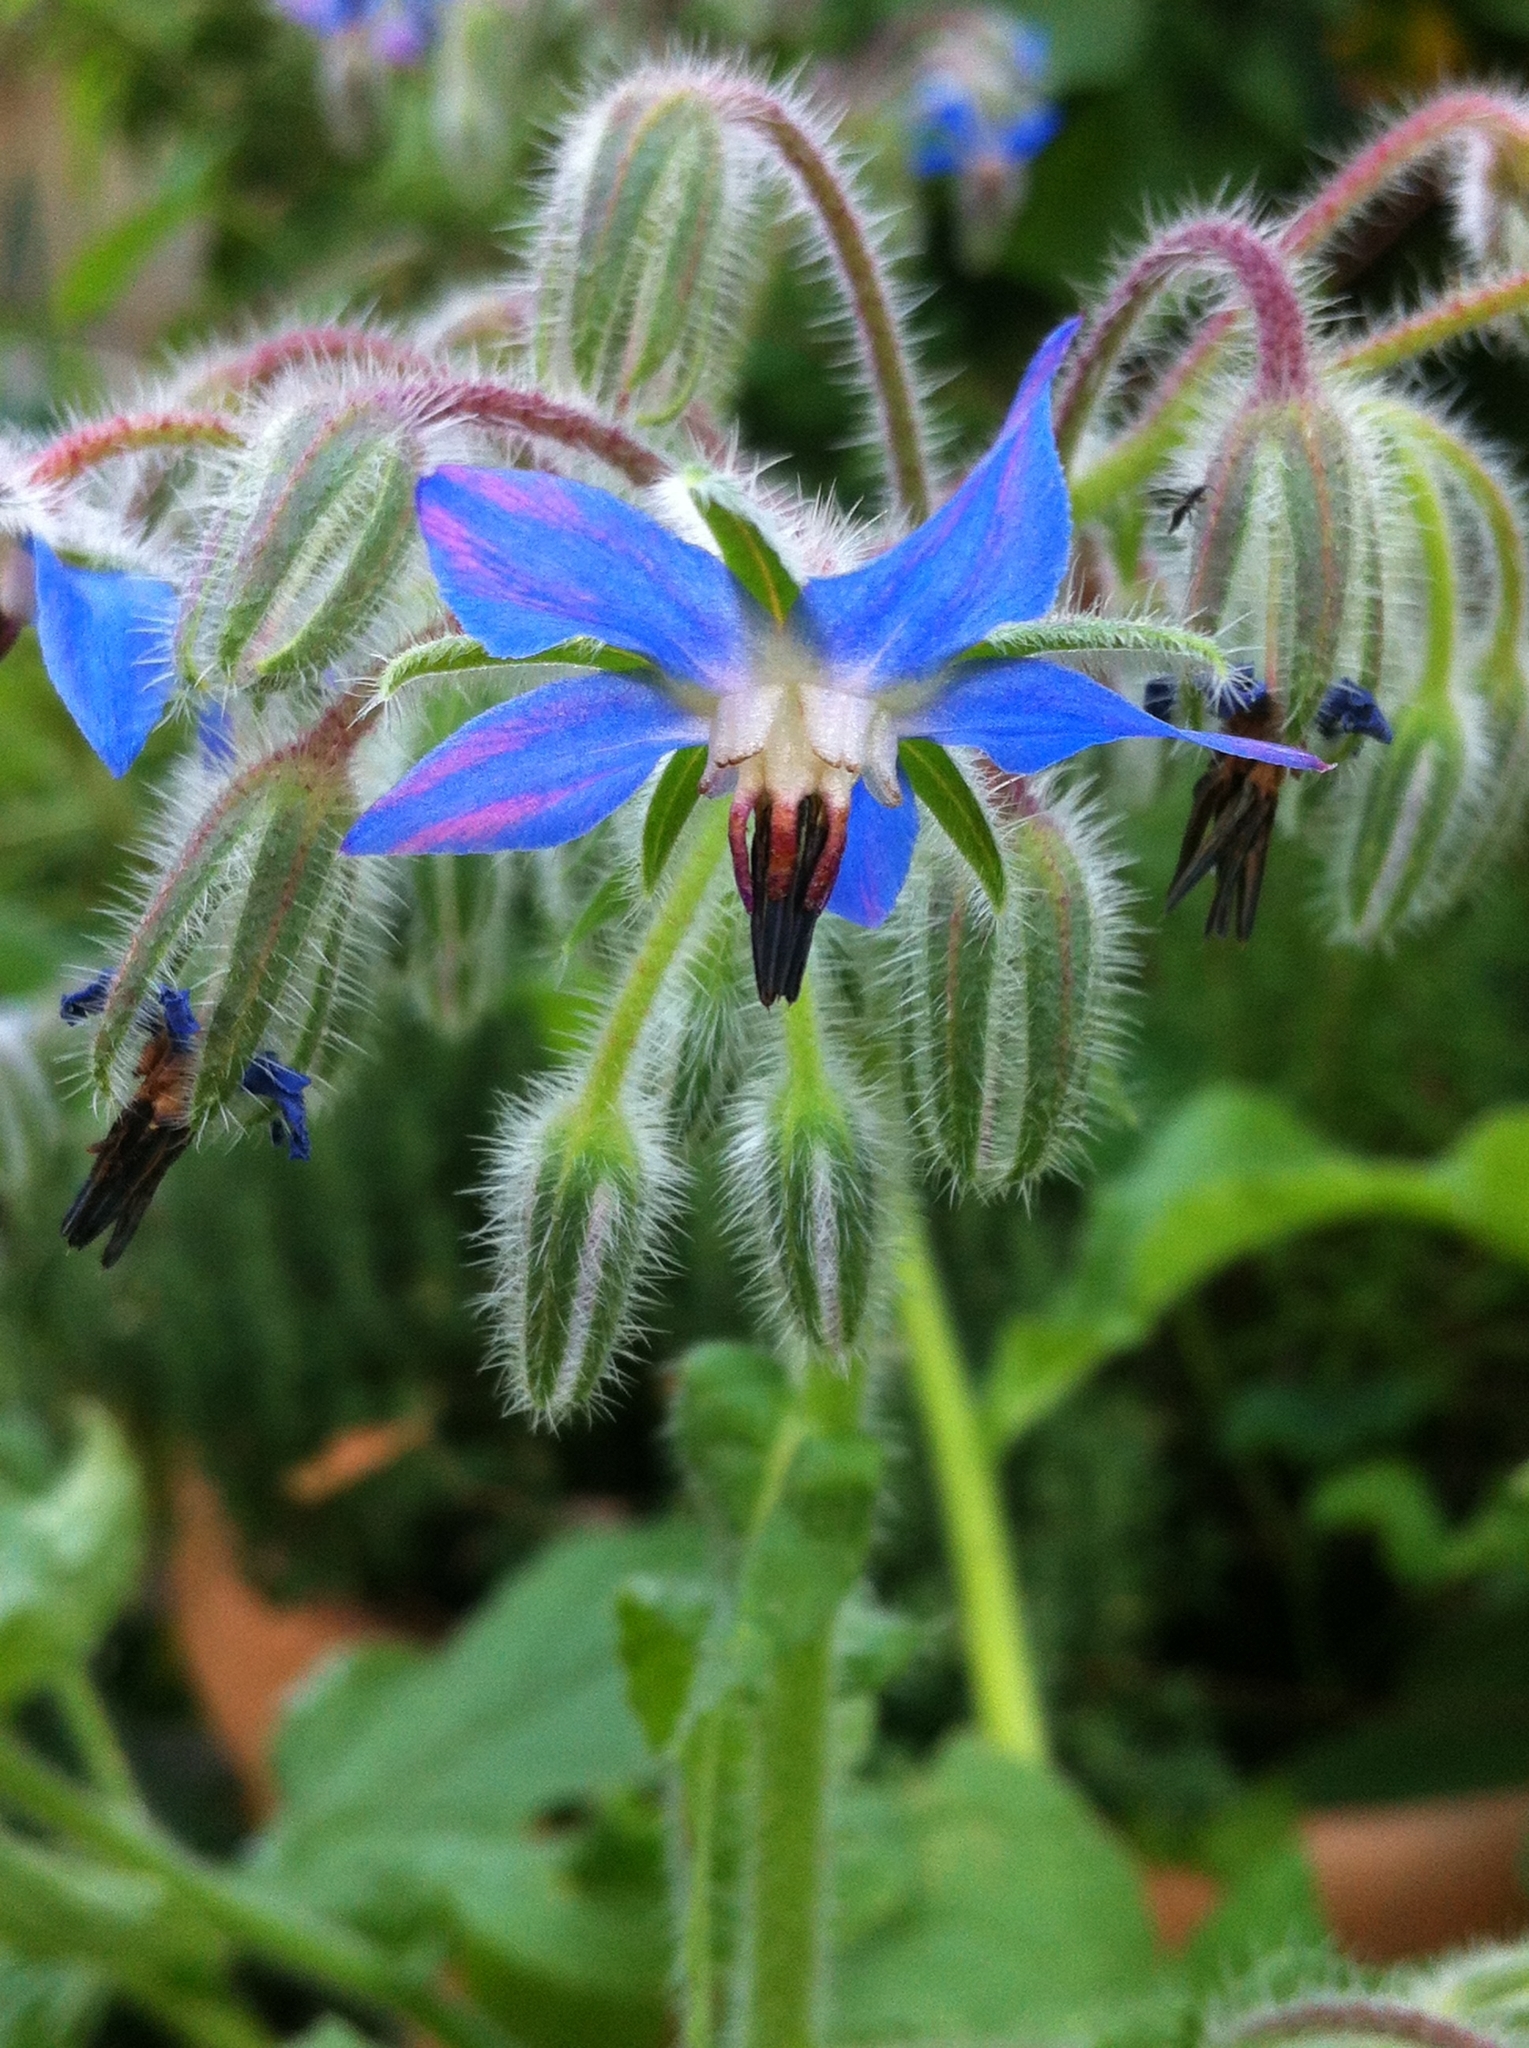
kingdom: Plantae
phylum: Tracheophyta
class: Magnoliopsida
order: Boraginales
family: Boraginaceae
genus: Borago
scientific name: Borago officinalis
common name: Borage
